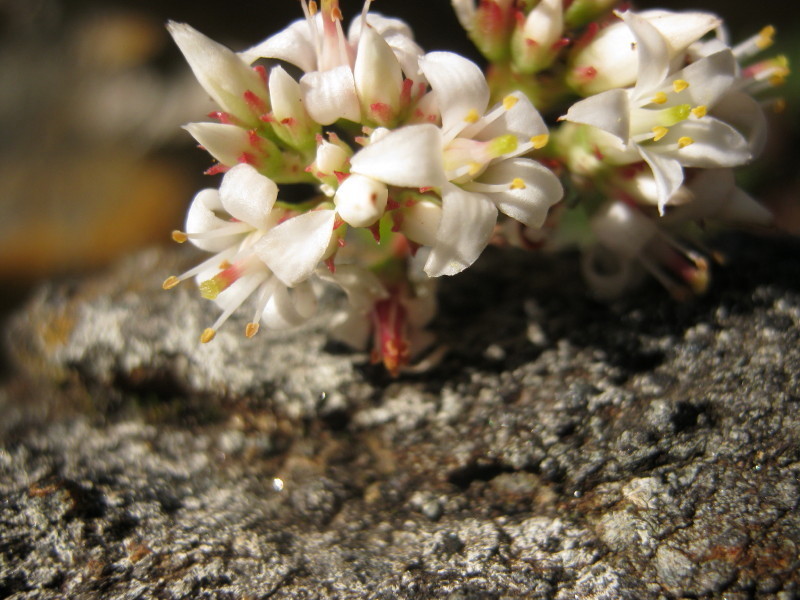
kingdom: Plantae
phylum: Tracheophyta
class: Magnoliopsida
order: Saxifragales
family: Crassulaceae
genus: Crassula
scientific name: Crassula rubricaulis
